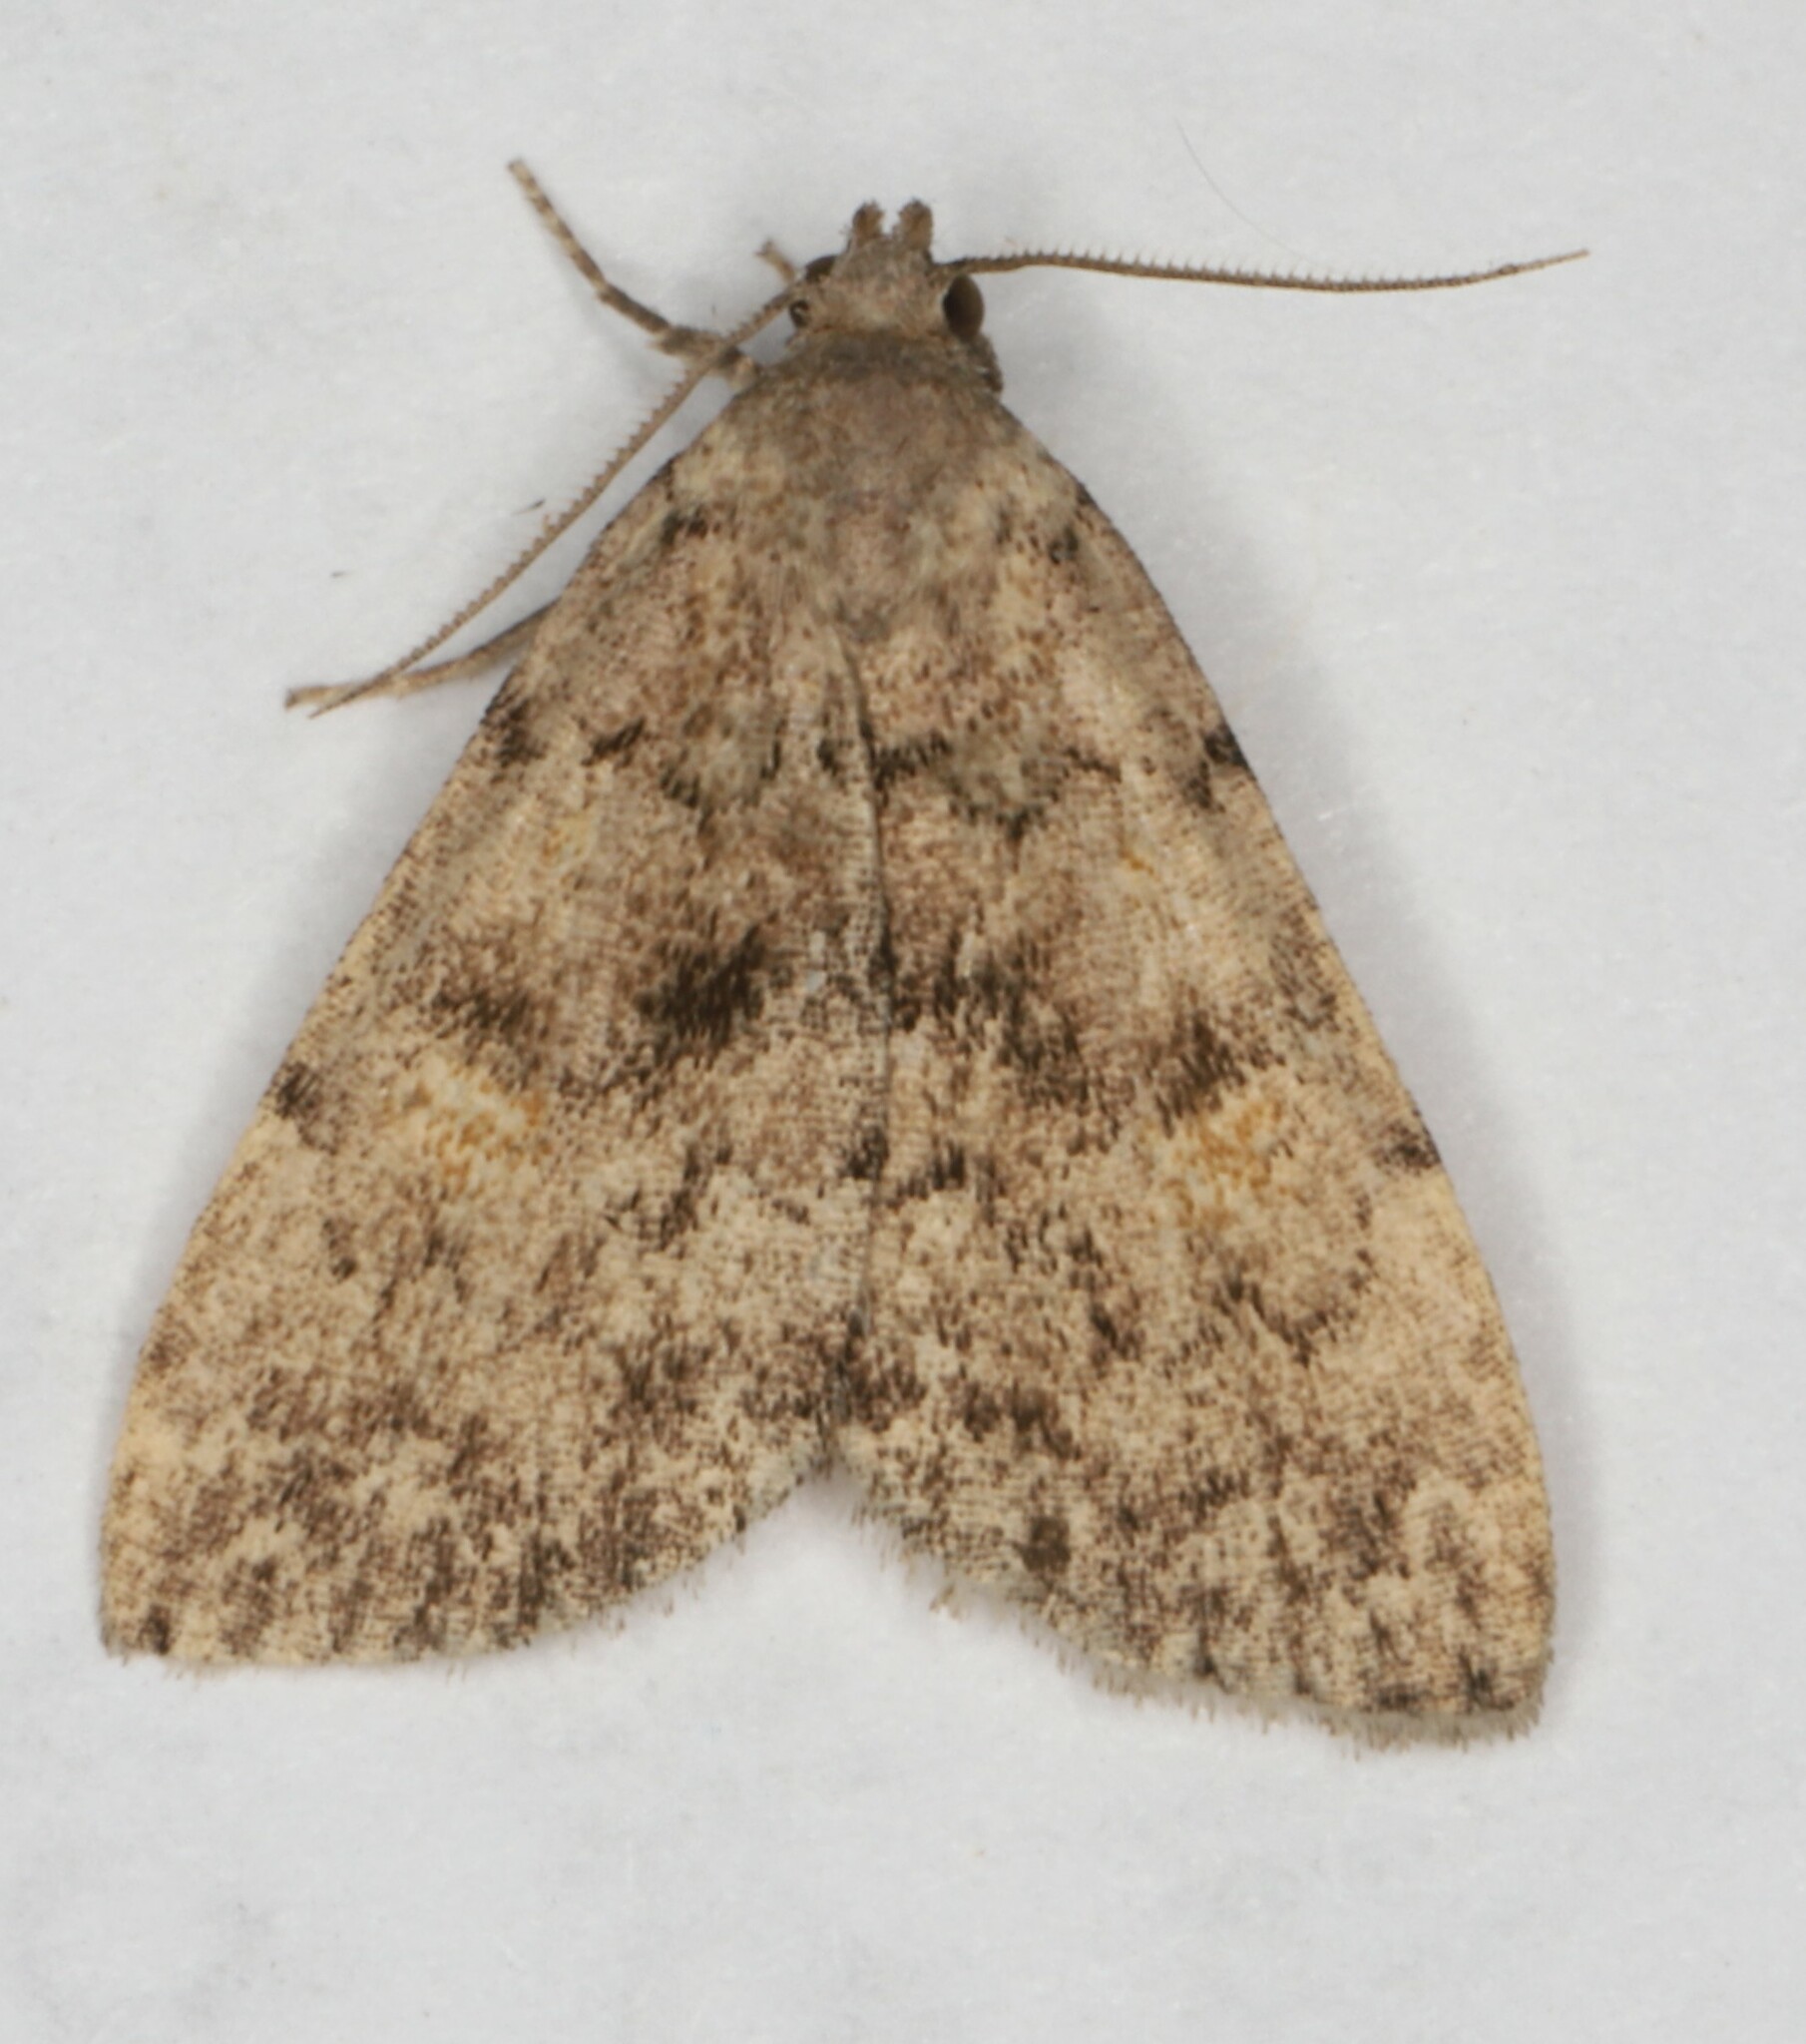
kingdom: Animalia
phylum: Arthropoda
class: Insecta
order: Lepidoptera
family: Erebidae
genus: Idia
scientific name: Idia aemula
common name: Common idia moth
